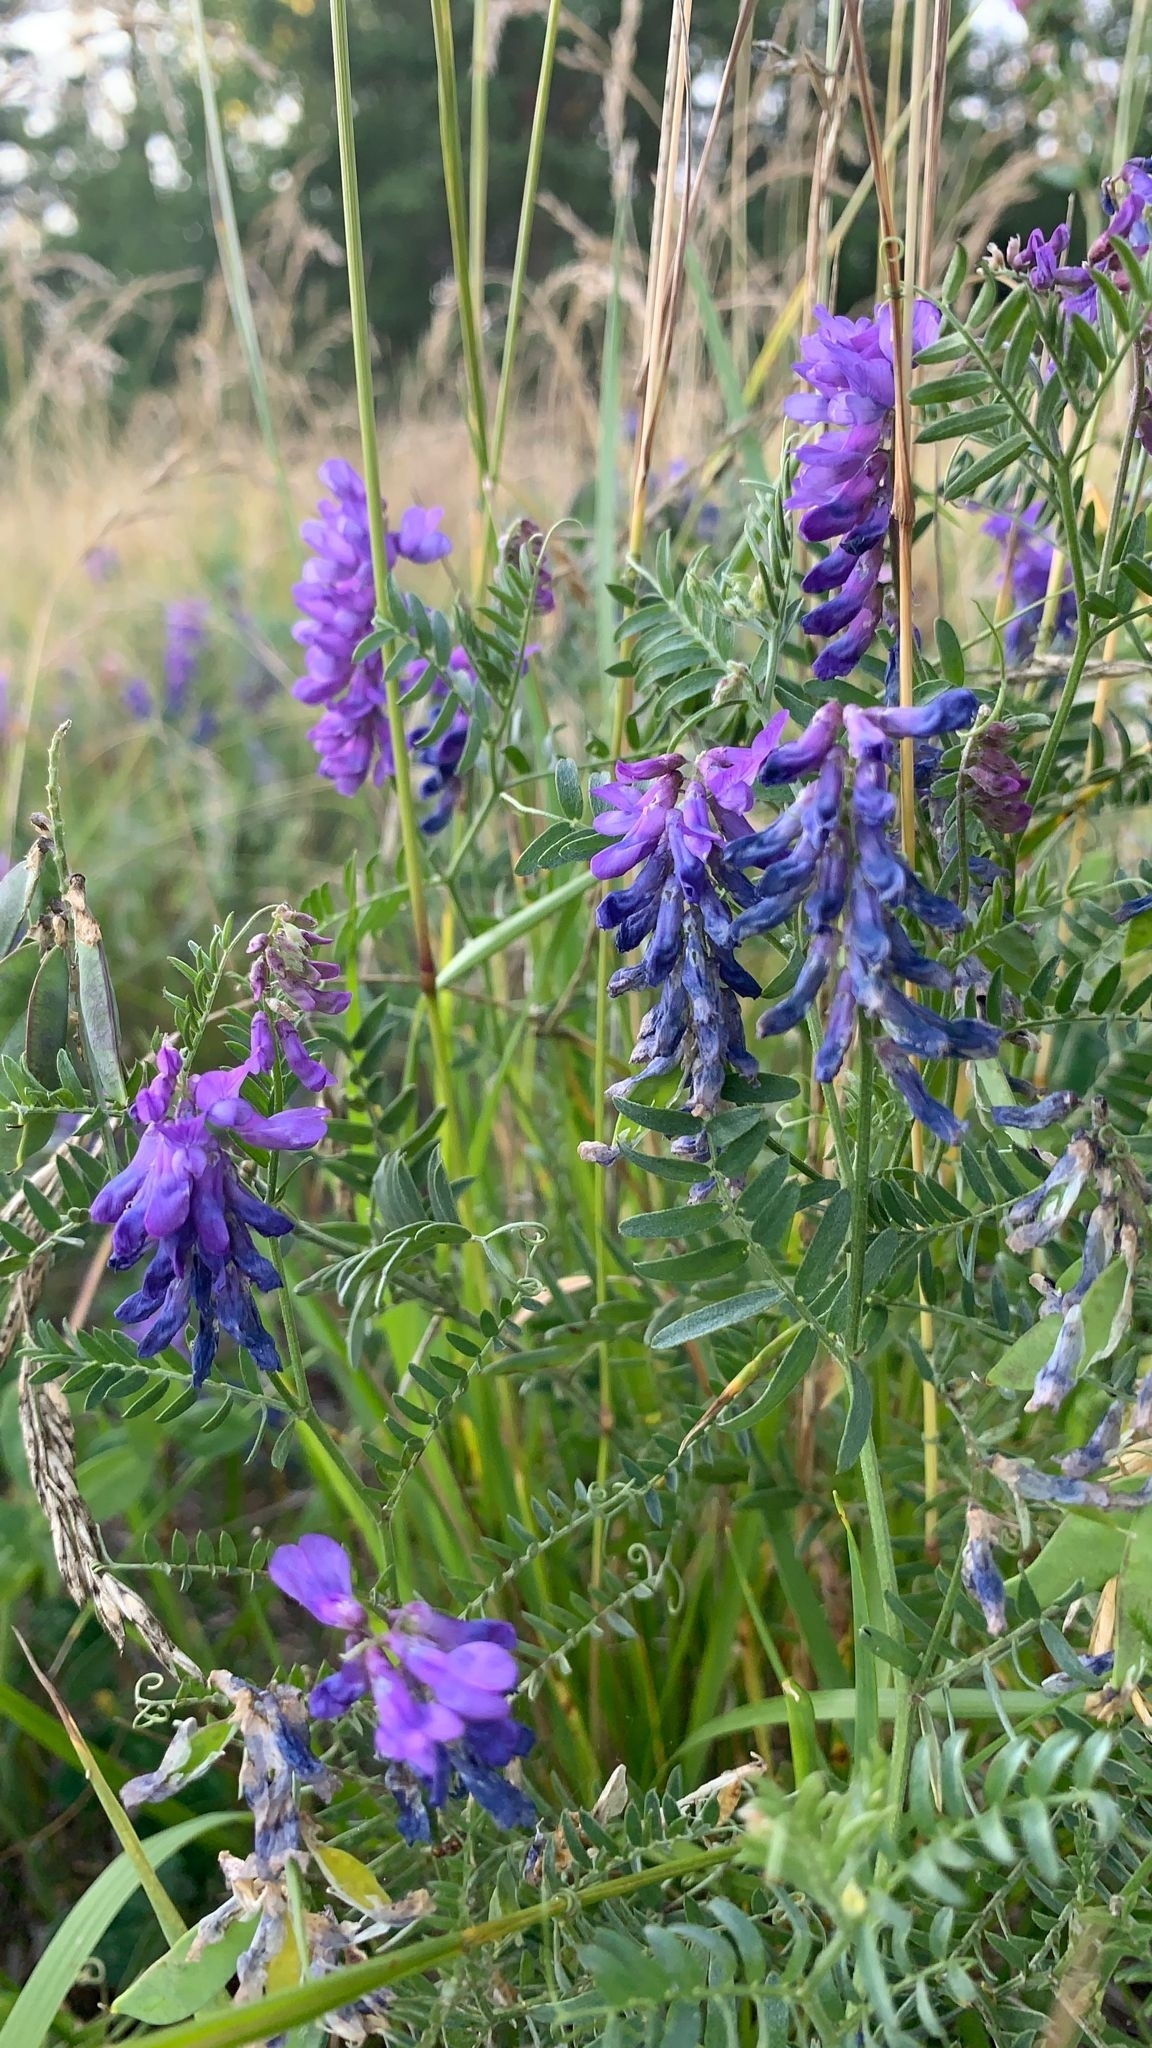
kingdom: Plantae
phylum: Tracheophyta
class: Magnoliopsida
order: Fabales
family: Fabaceae
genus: Vicia
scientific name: Vicia cracca
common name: Bird vetch
